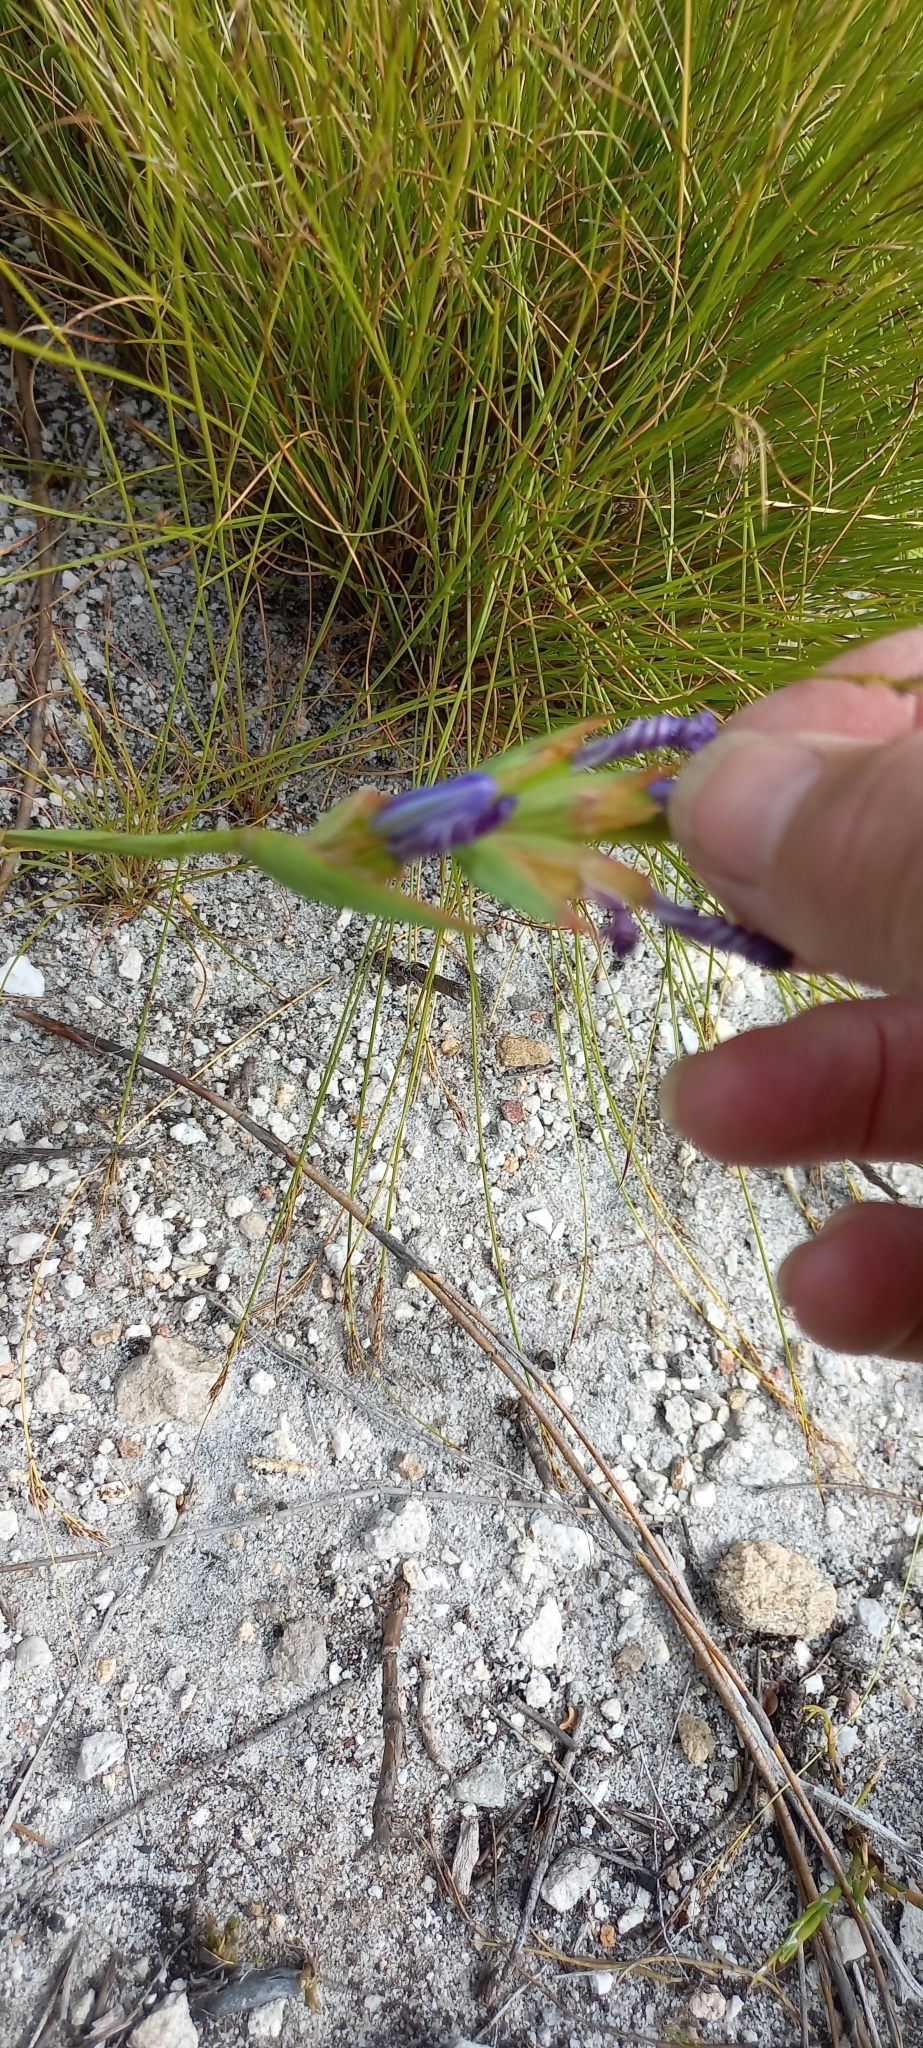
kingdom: Plantae
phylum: Tracheophyta
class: Liliopsida
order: Asparagales
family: Iridaceae
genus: Aristea
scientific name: Aristea juncifolia
